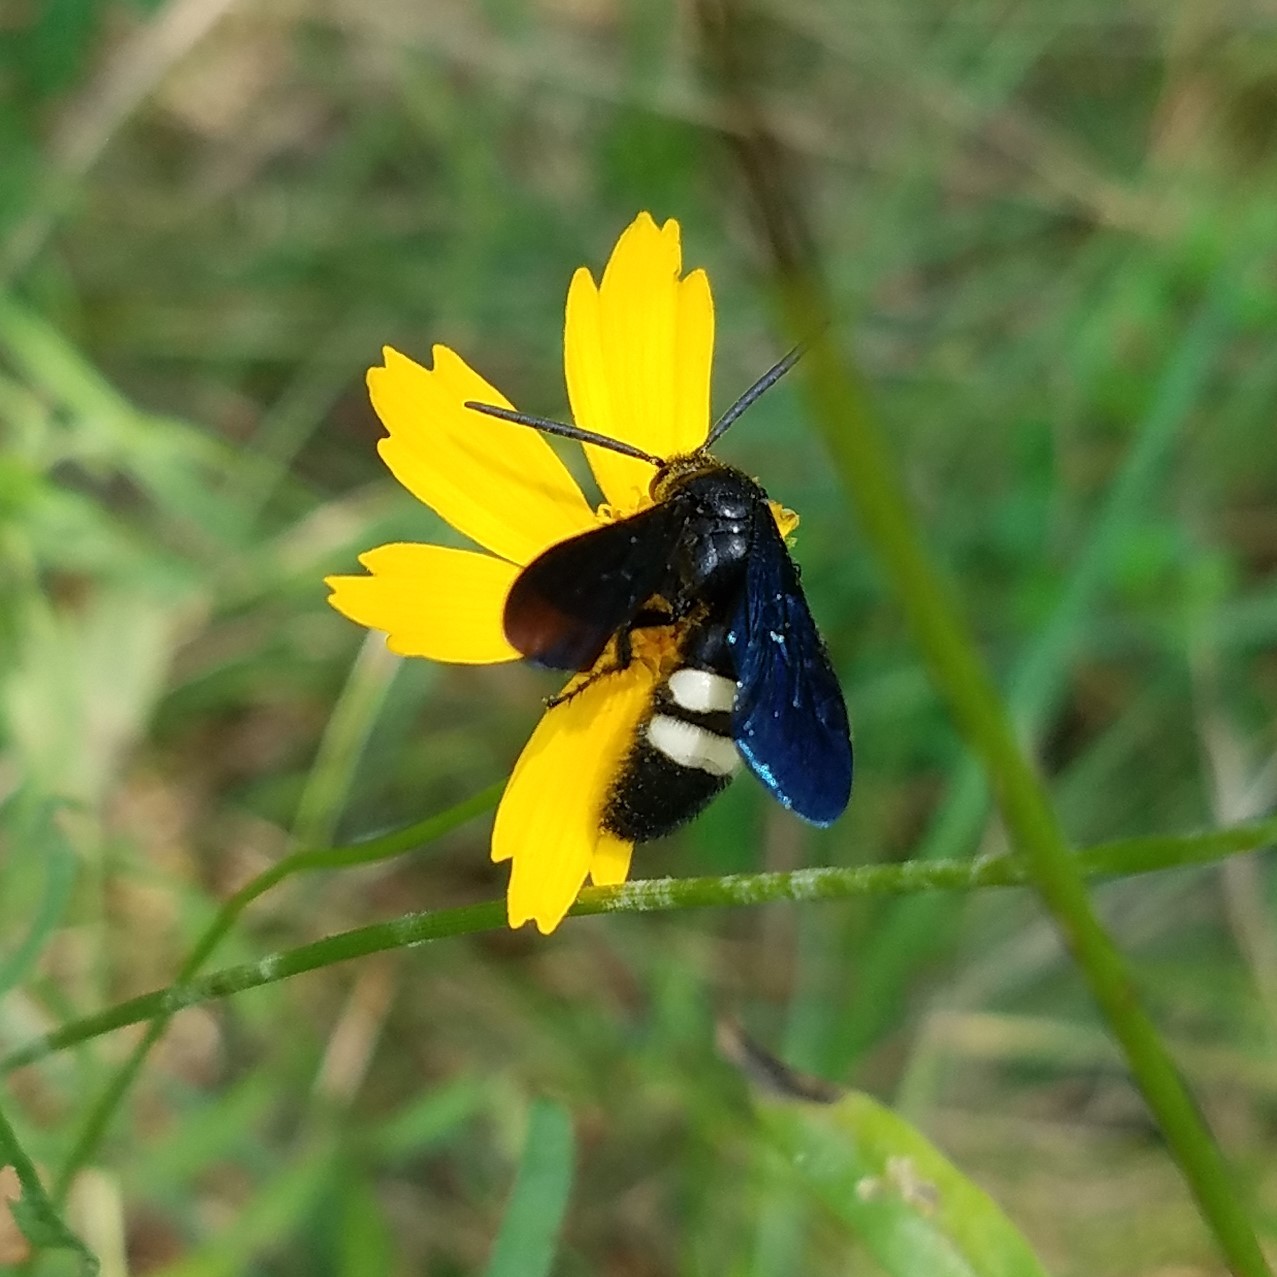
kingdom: Animalia
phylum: Arthropoda
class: Insecta
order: Hymenoptera
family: Scoliidae
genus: Scolia
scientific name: Scolia bicincta
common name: Double-banded scoliid wasp
